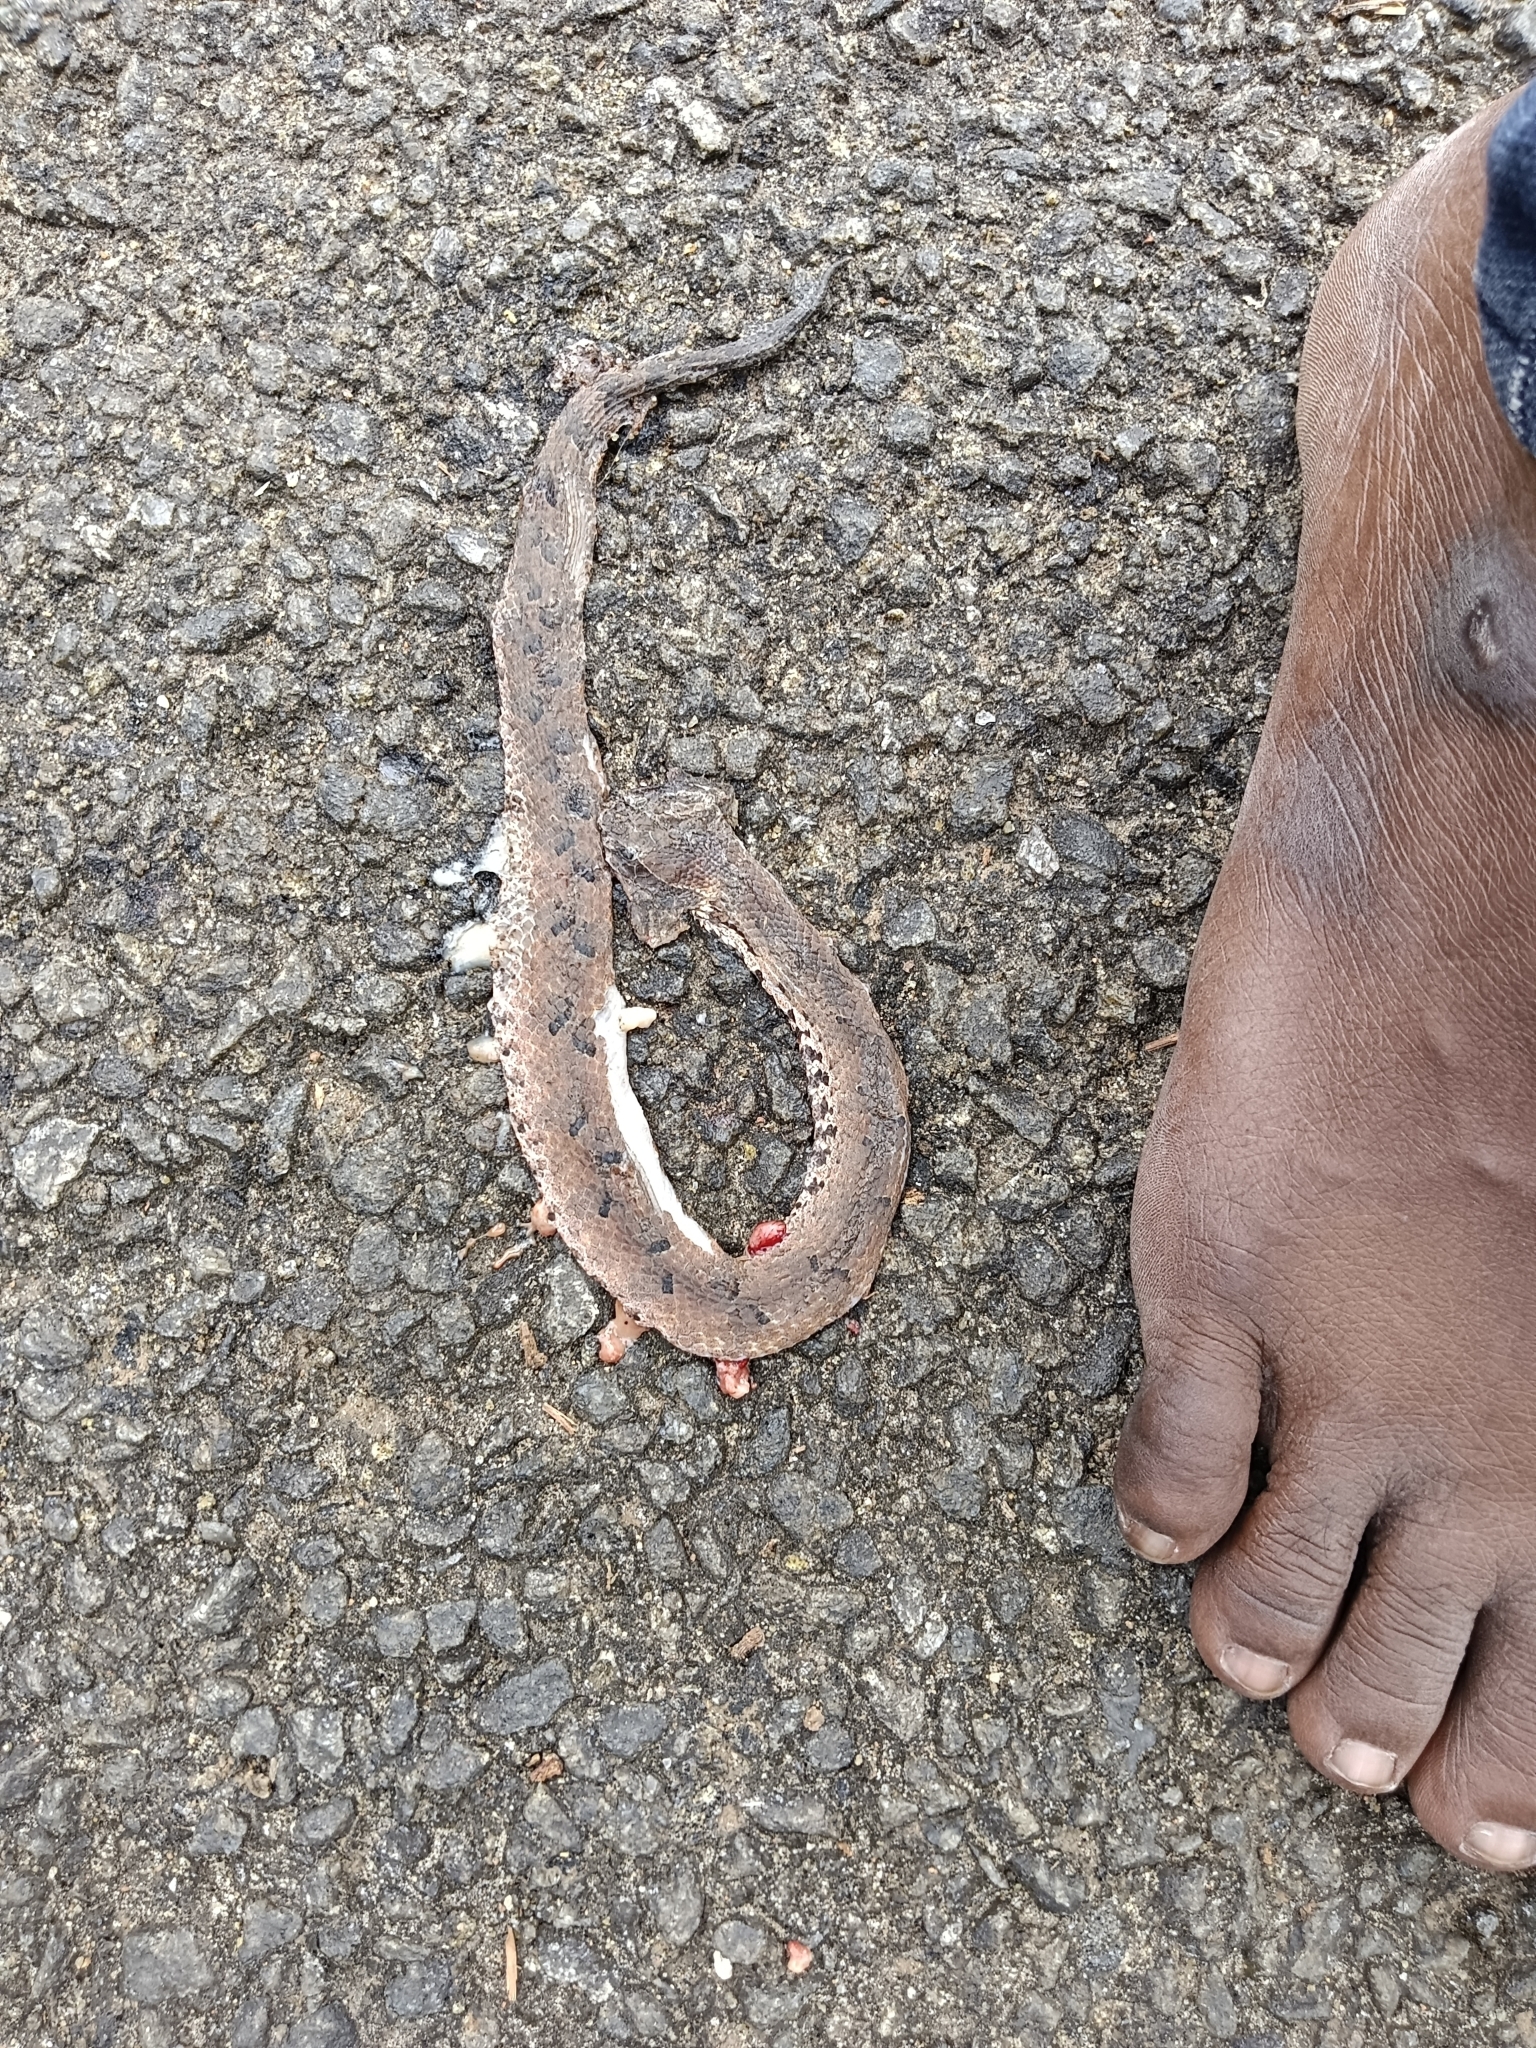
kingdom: Animalia
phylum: Chordata
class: Squamata
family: Viperidae
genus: Hypnale
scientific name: Hypnale hypnale
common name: Hump-nosed moccasin
